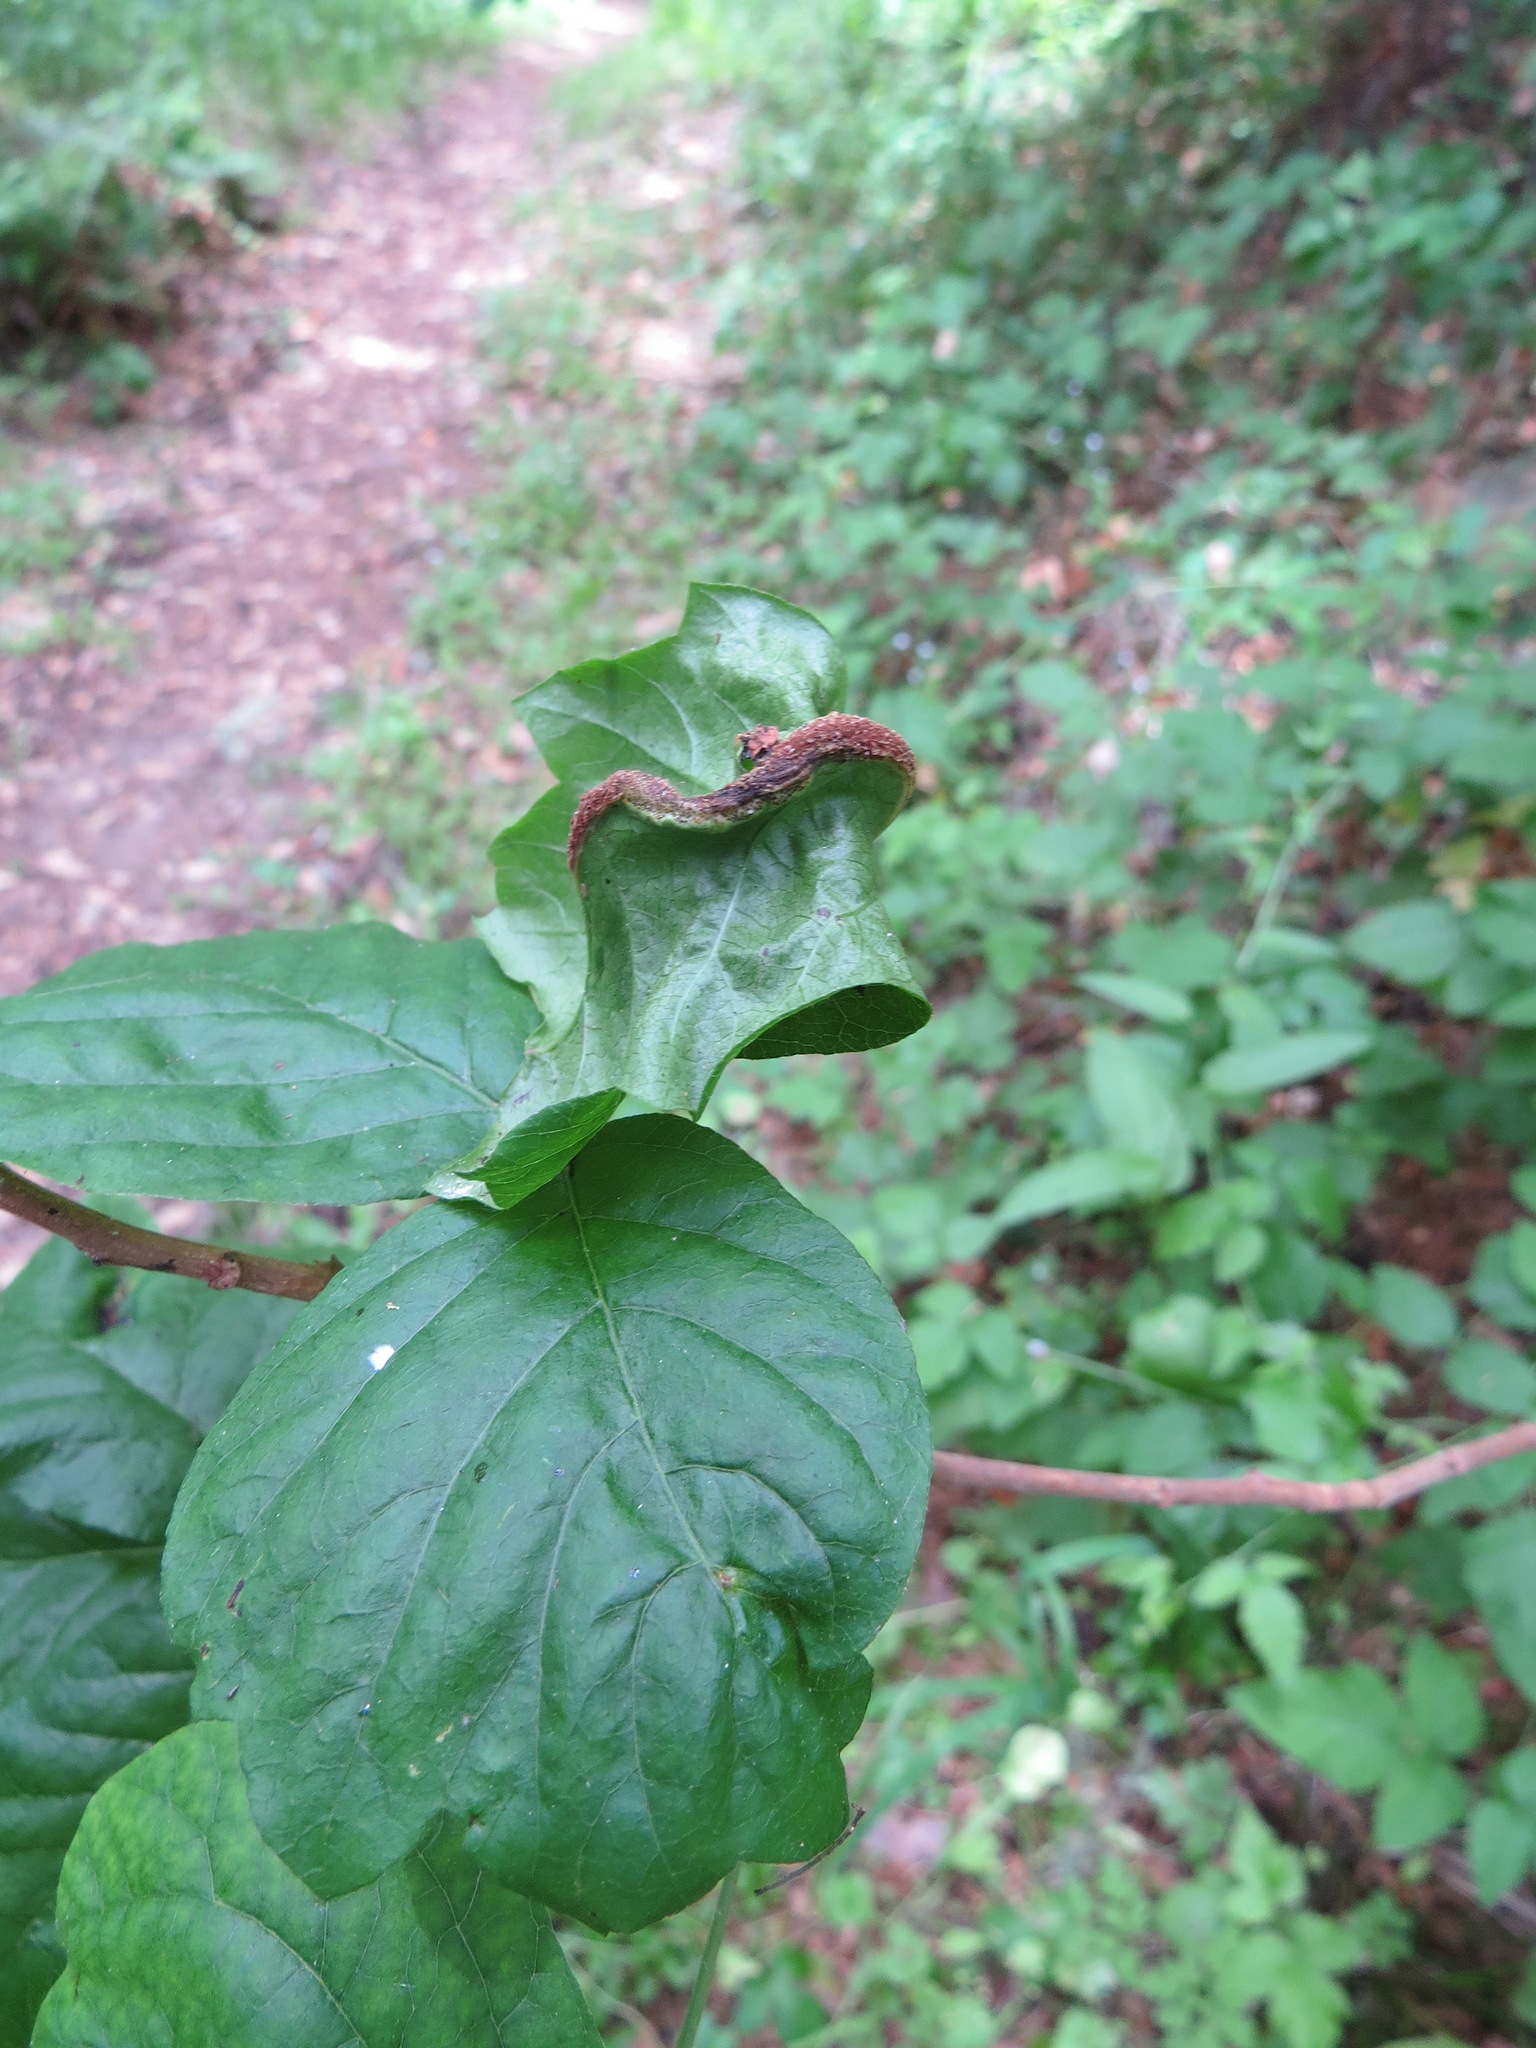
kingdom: Fungi
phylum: Basidiomycota
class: Pucciniomycetes
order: Pucciniales
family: Pileolariaceae
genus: Pileolaria
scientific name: Pileolaria brevipes
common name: Poison ivy rust
